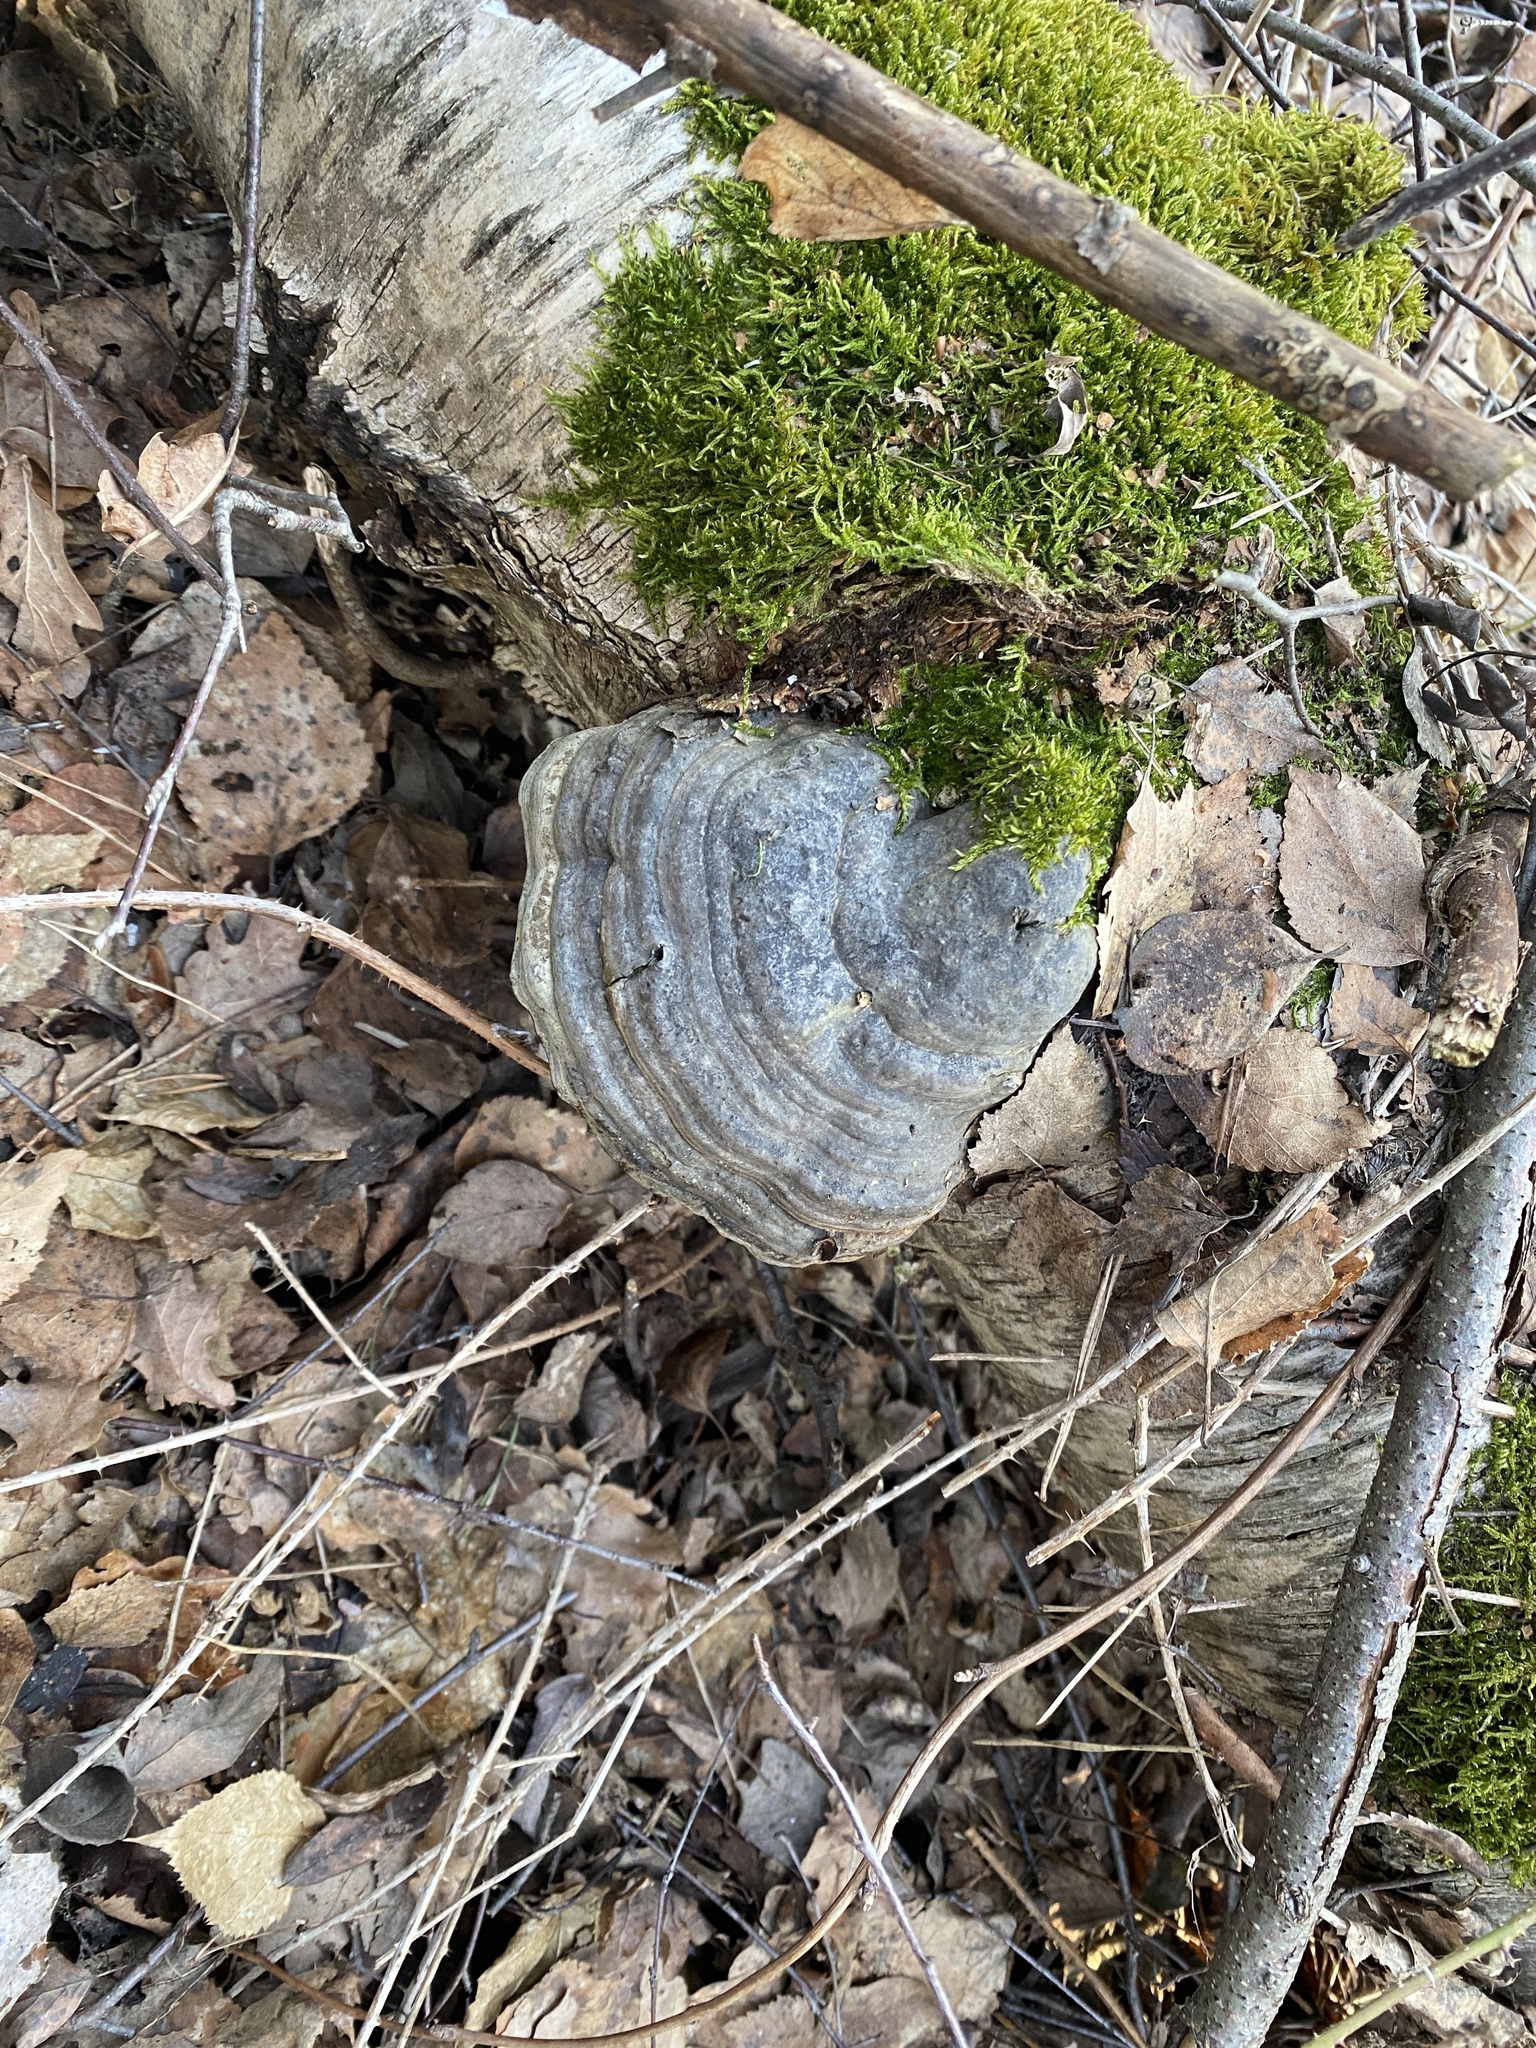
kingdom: Fungi
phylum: Basidiomycota
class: Agaricomycetes
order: Polyporales
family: Polyporaceae
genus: Fomes
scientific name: Fomes fomentarius
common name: Hoof fungus
